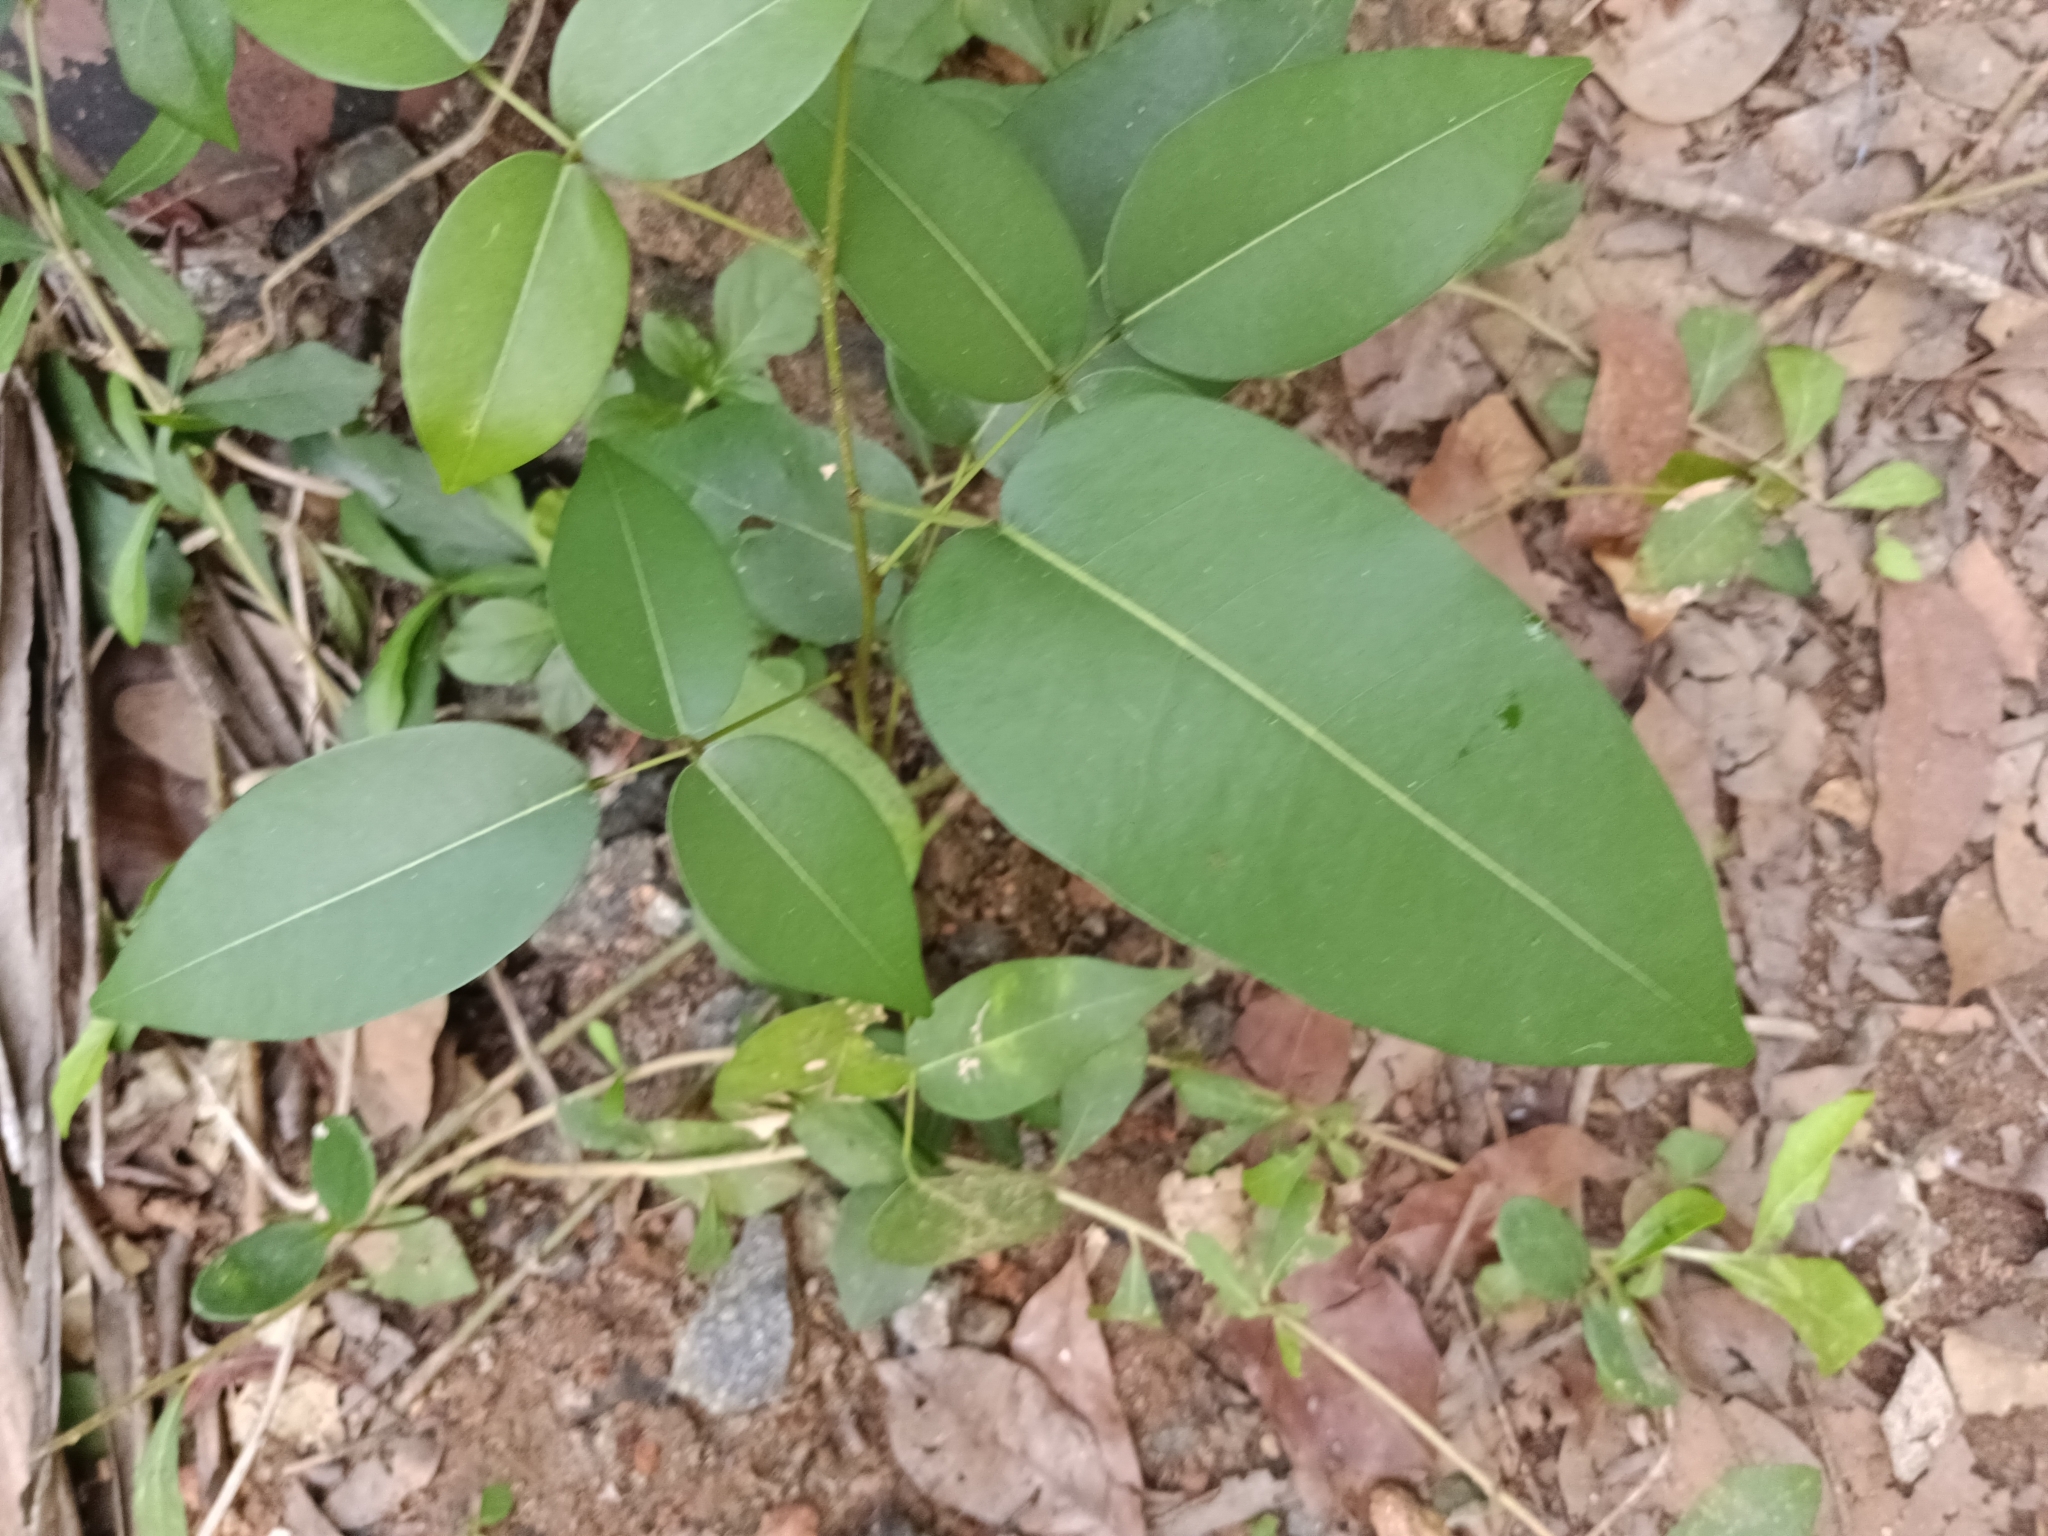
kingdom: Plantae
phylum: Tracheophyta
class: Magnoliopsida
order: Fabales
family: Fabaceae
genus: Derris
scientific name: Derris trifoliata
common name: Three-leaf derris
